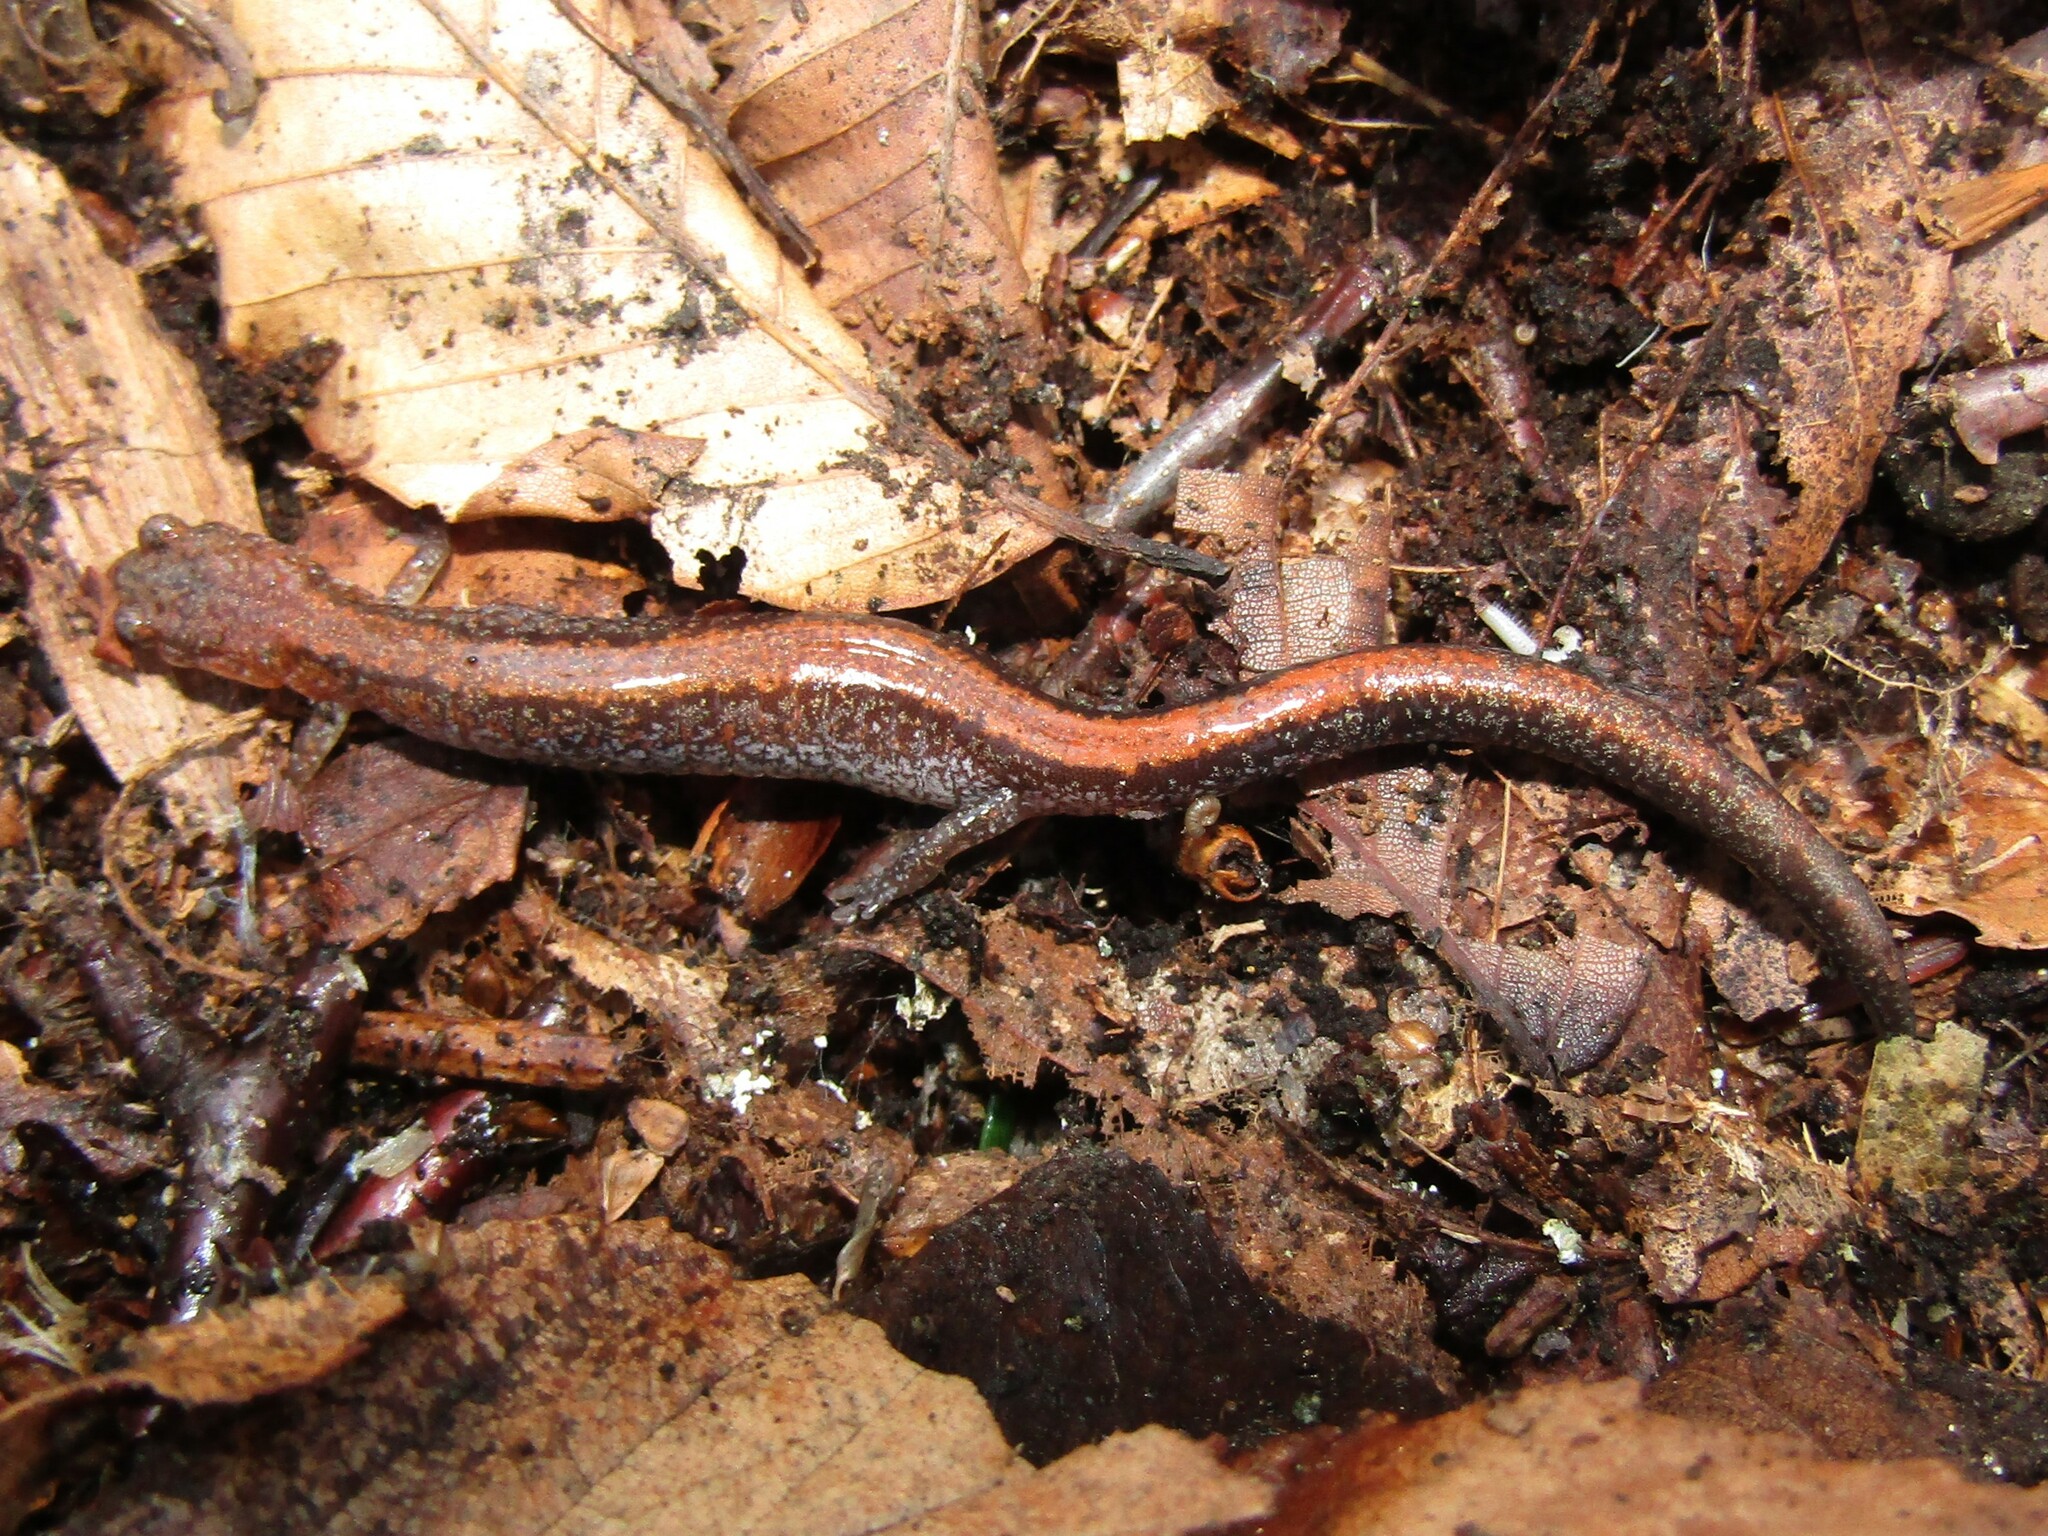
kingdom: Animalia
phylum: Chordata
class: Amphibia
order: Caudata
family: Plethodontidae
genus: Plethodon
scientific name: Plethodon cinereus
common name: Redback salamander
